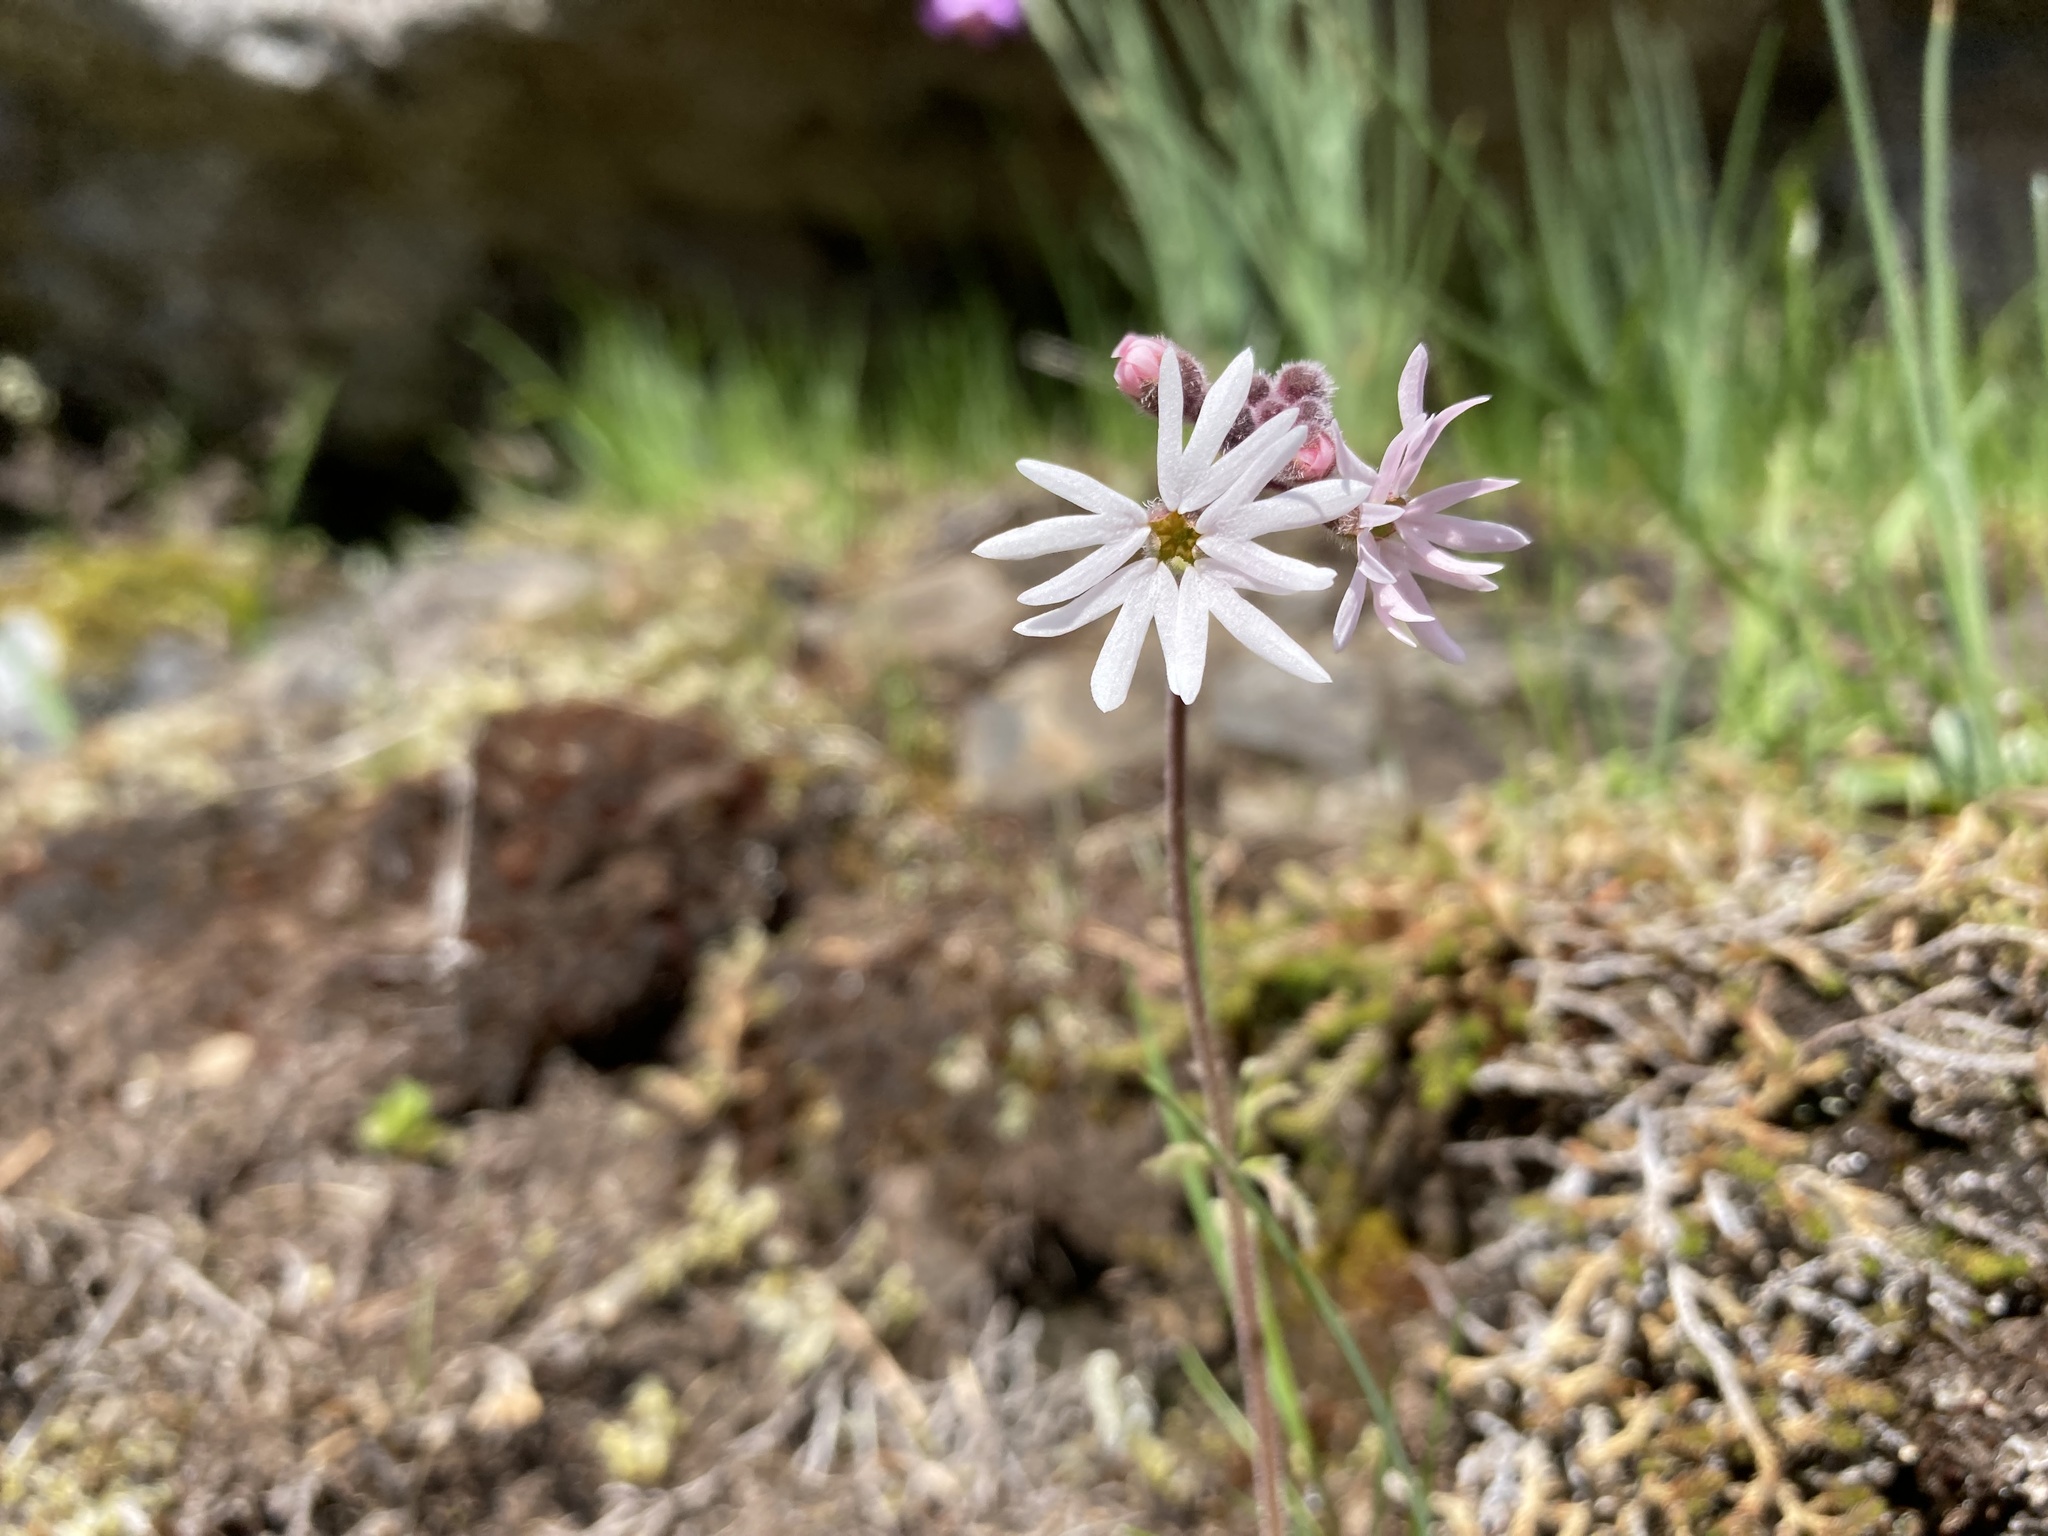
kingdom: Plantae
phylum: Tracheophyta
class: Magnoliopsida
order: Saxifragales
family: Saxifragaceae
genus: Lithophragma
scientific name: Lithophragma parviflorum
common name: Small-flowered fringe-cup
